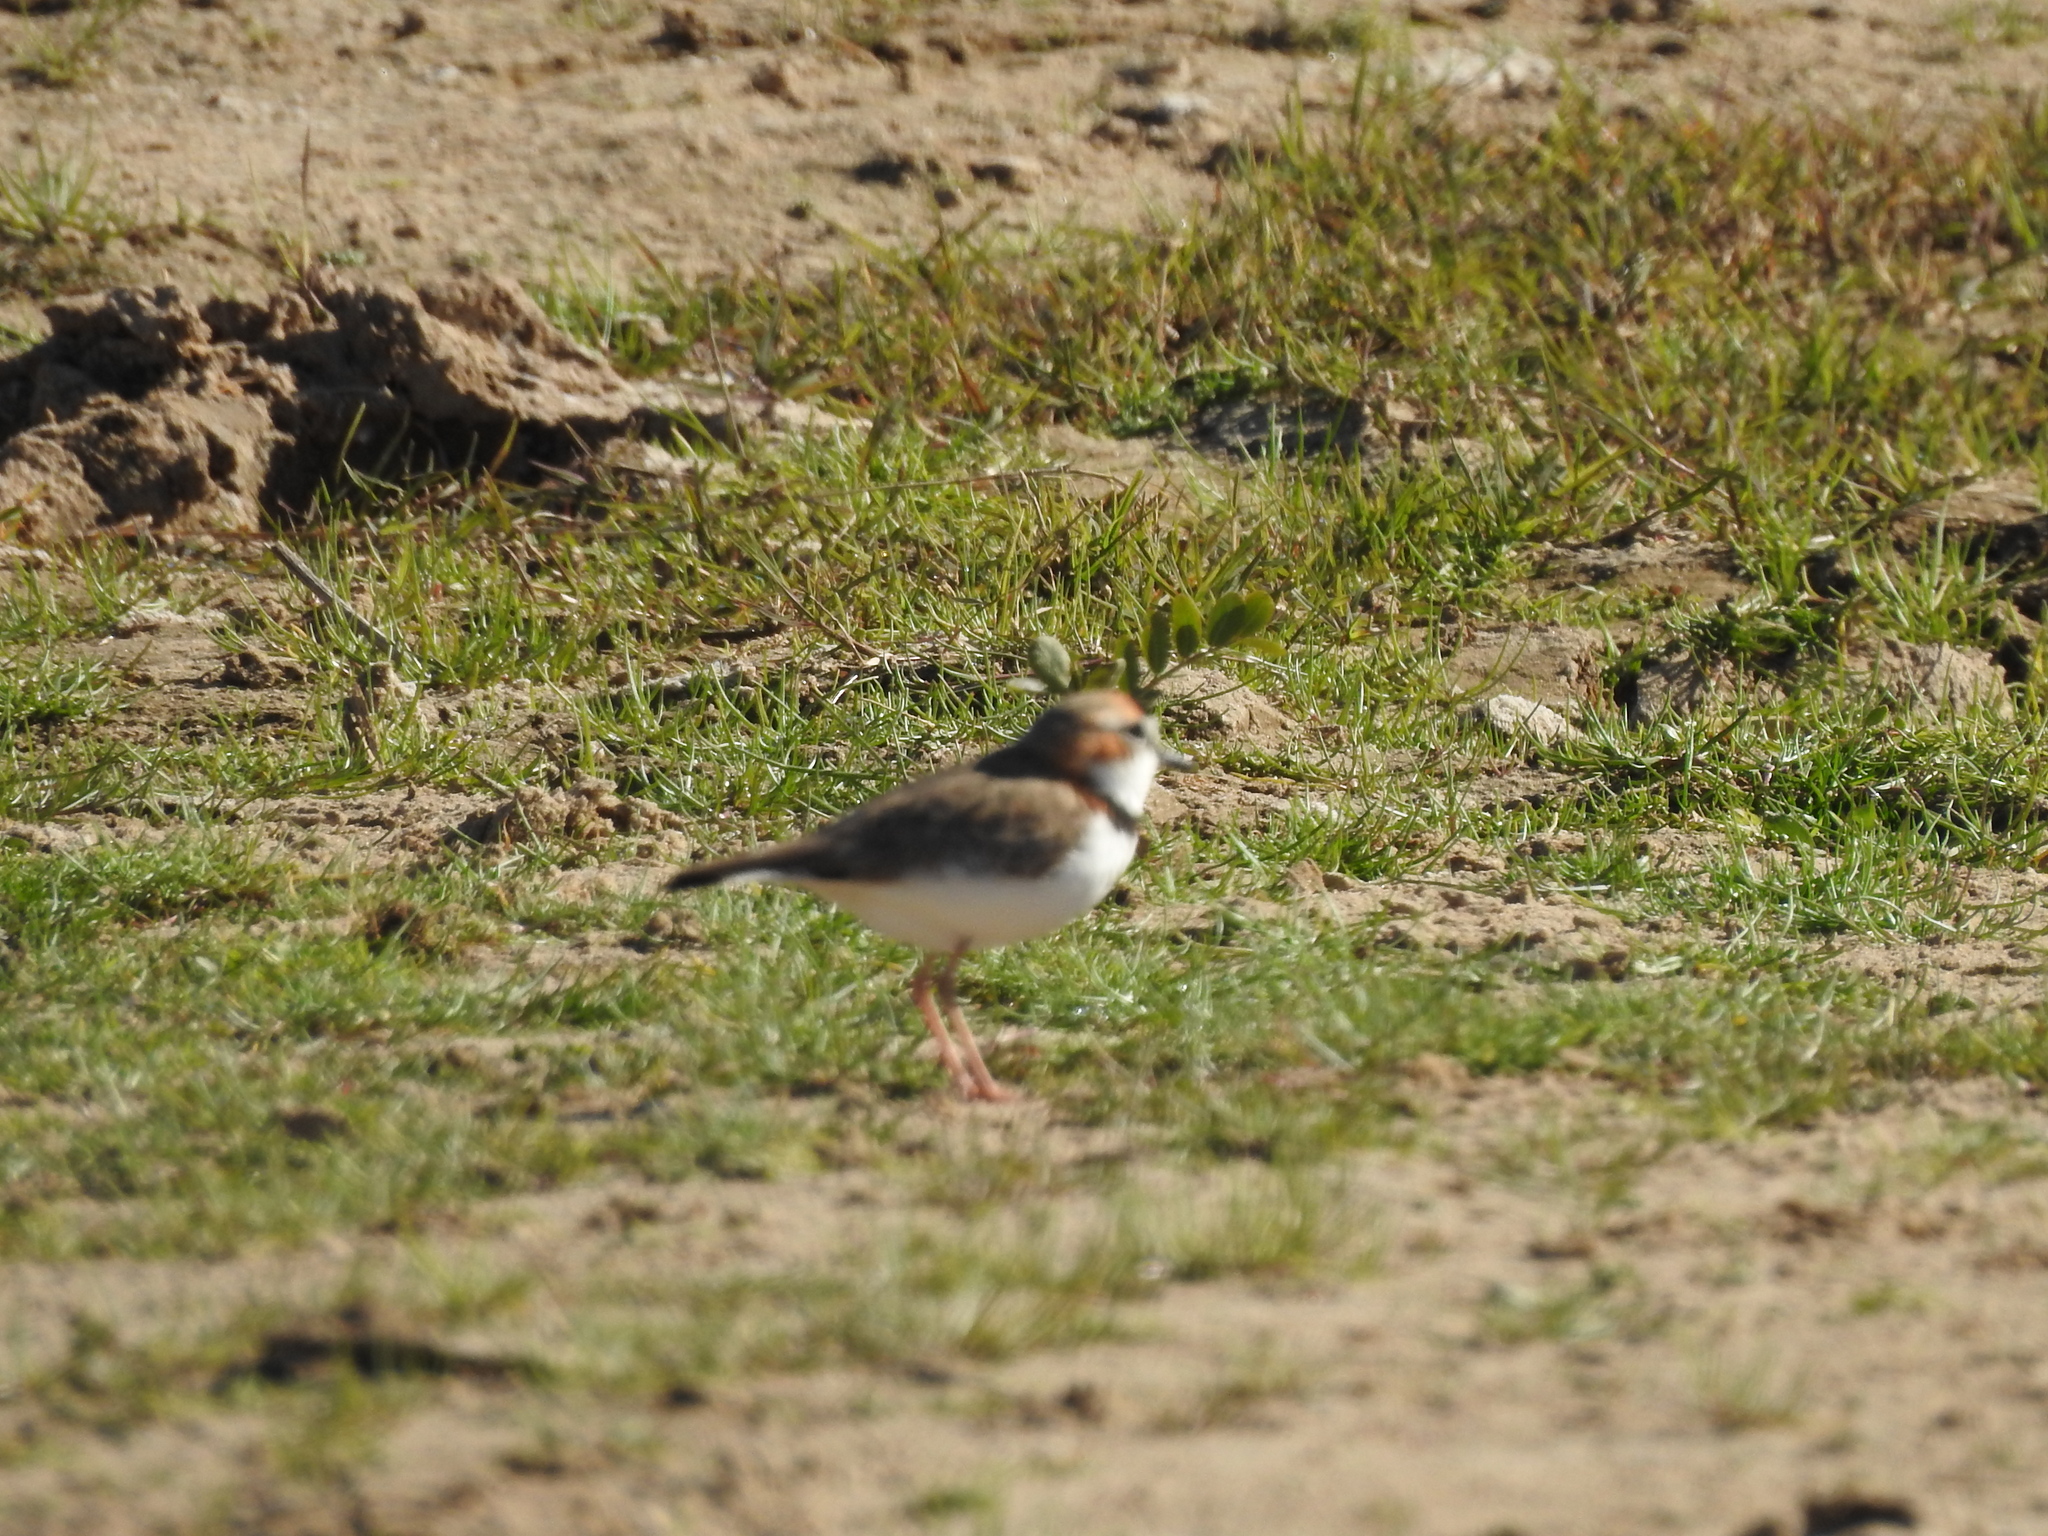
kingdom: Animalia
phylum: Chordata
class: Aves
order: Charadriiformes
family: Charadriidae
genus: Anarhynchus
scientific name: Anarhynchus
